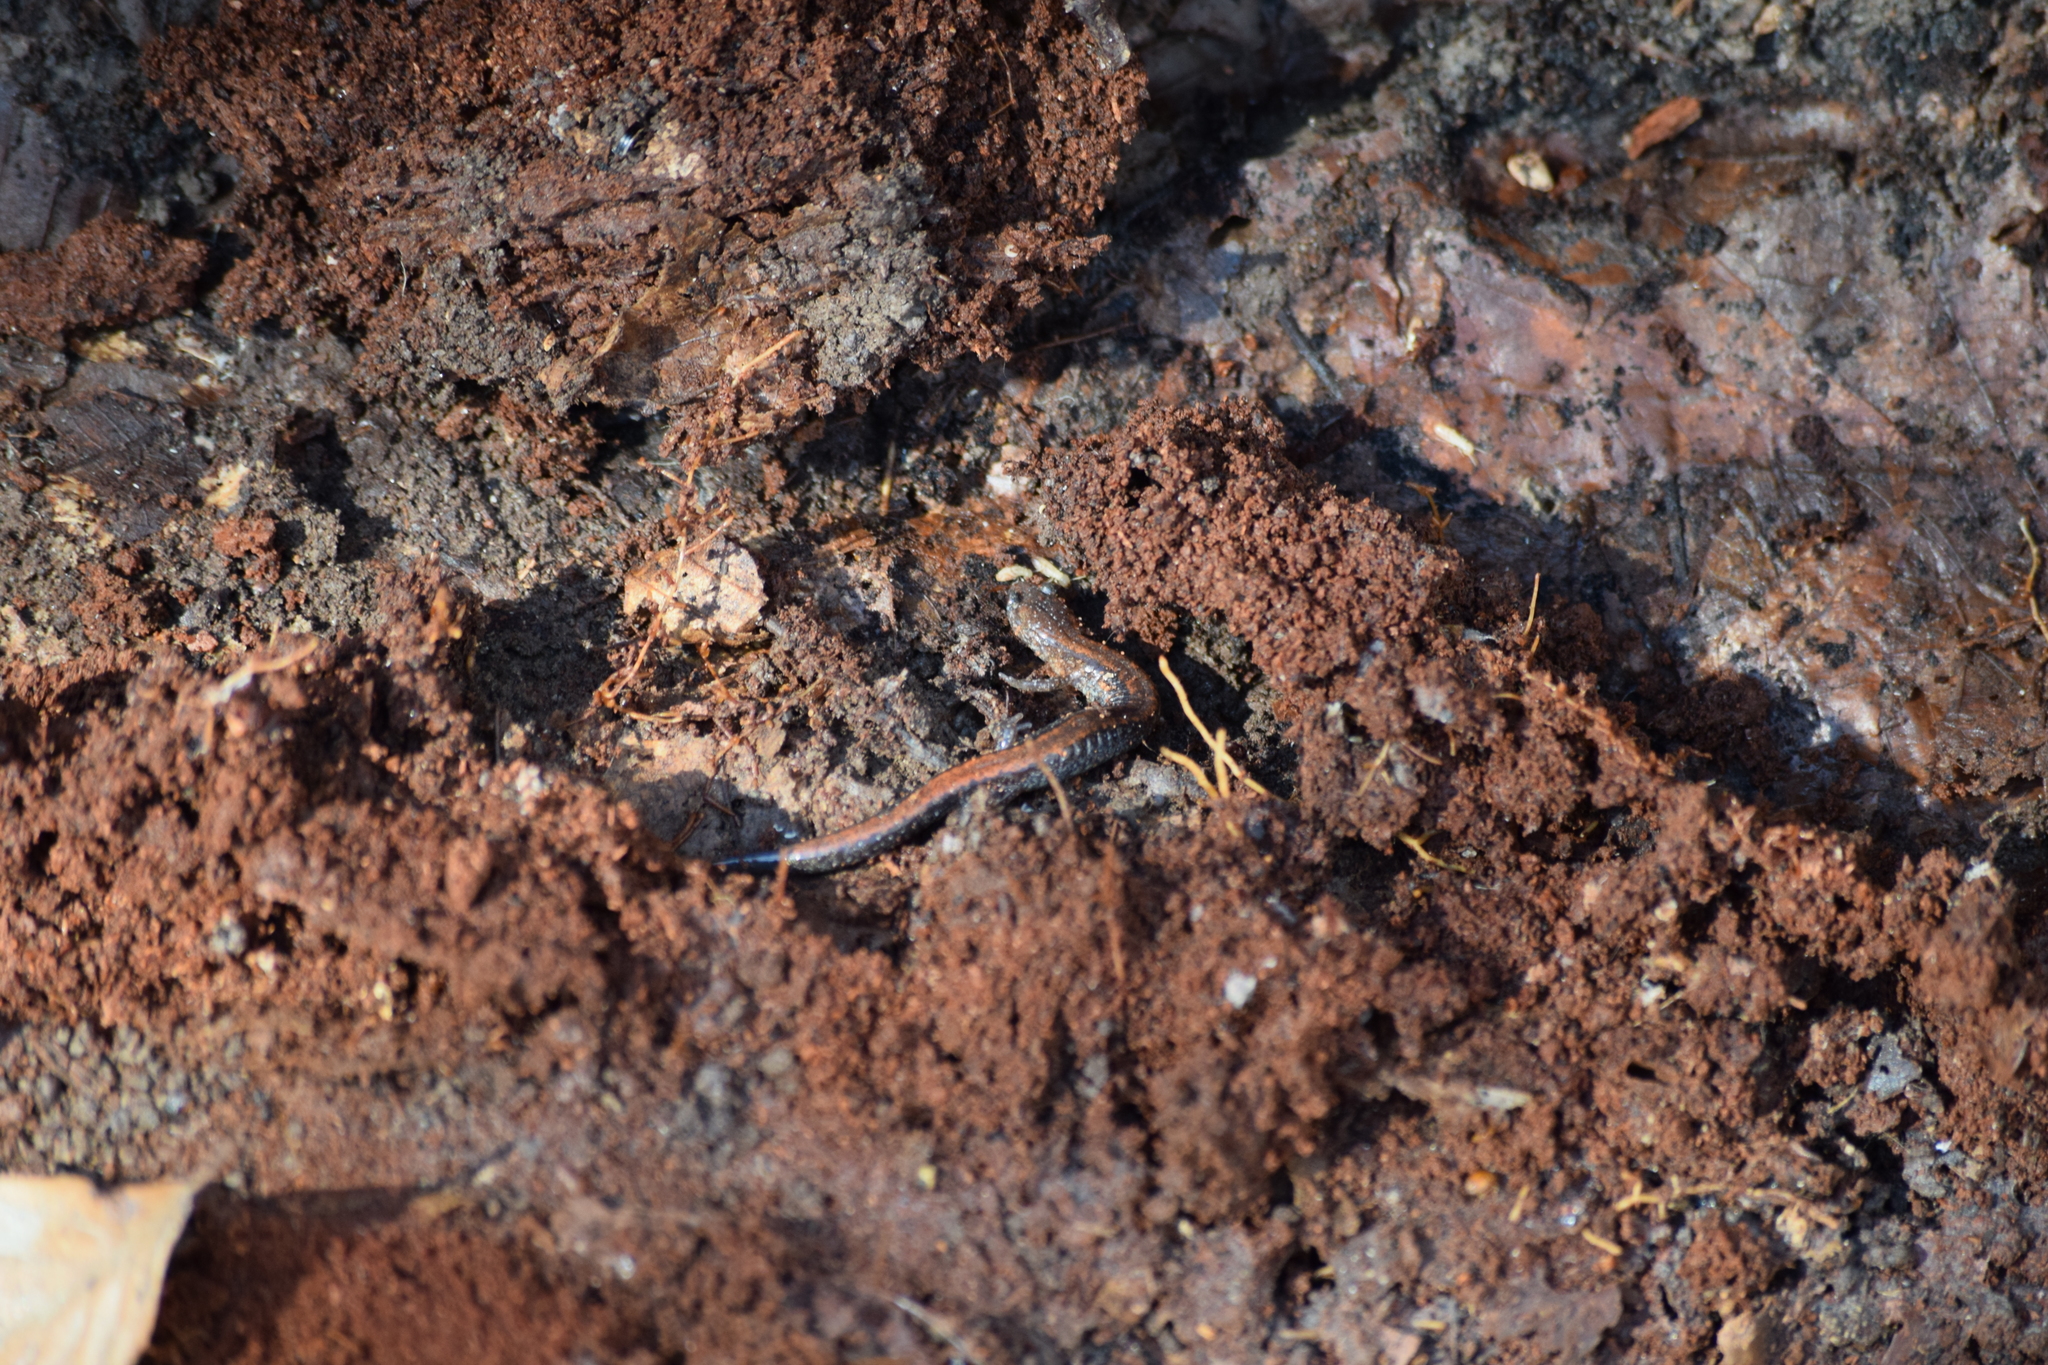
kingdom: Animalia
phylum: Chordata
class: Amphibia
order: Caudata
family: Plethodontidae
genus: Plethodon
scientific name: Plethodon cinereus
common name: Redback salamander
